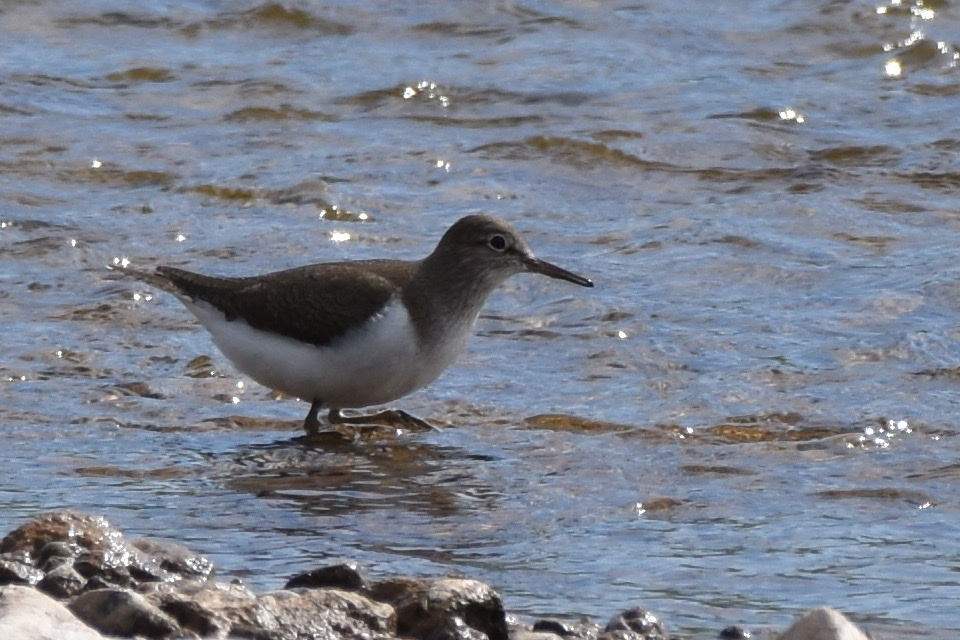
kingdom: Animalia
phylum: Chordata
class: Aves
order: Charadriiformes
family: Scolopacidae
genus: Actitis
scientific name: Actitis hypoleucos
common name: Common sandpiper
